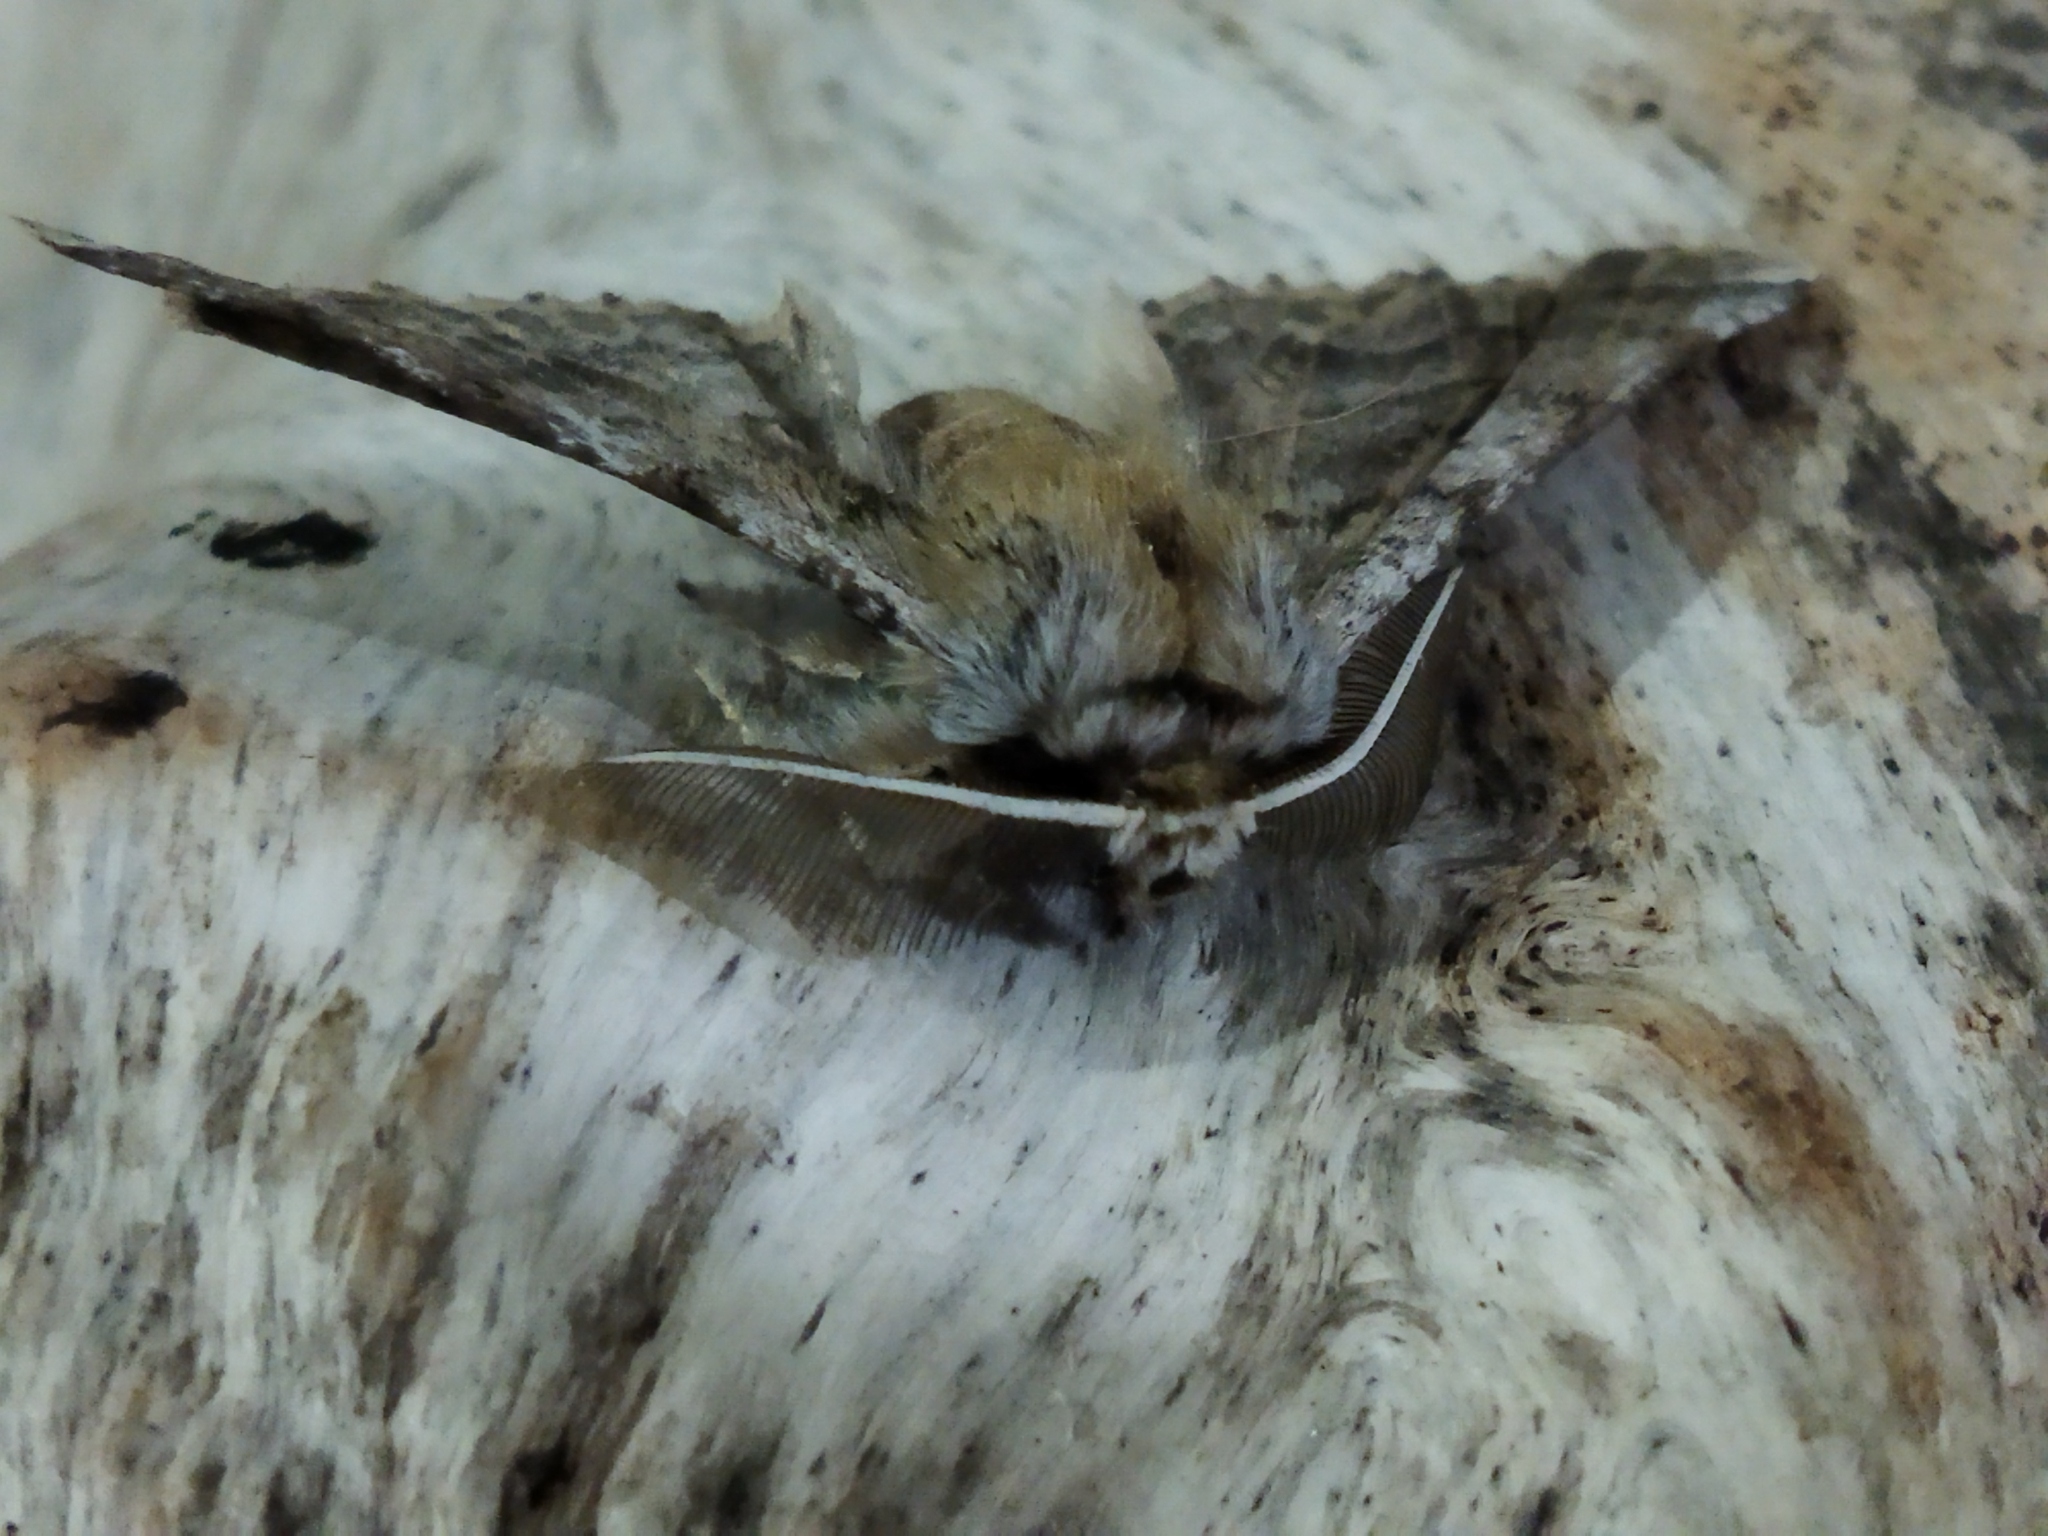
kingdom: Animalia
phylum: Arthropoda
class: Insecta
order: Lepidoptera
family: Geometridae
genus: Apochima
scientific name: Apochima flabellaria
